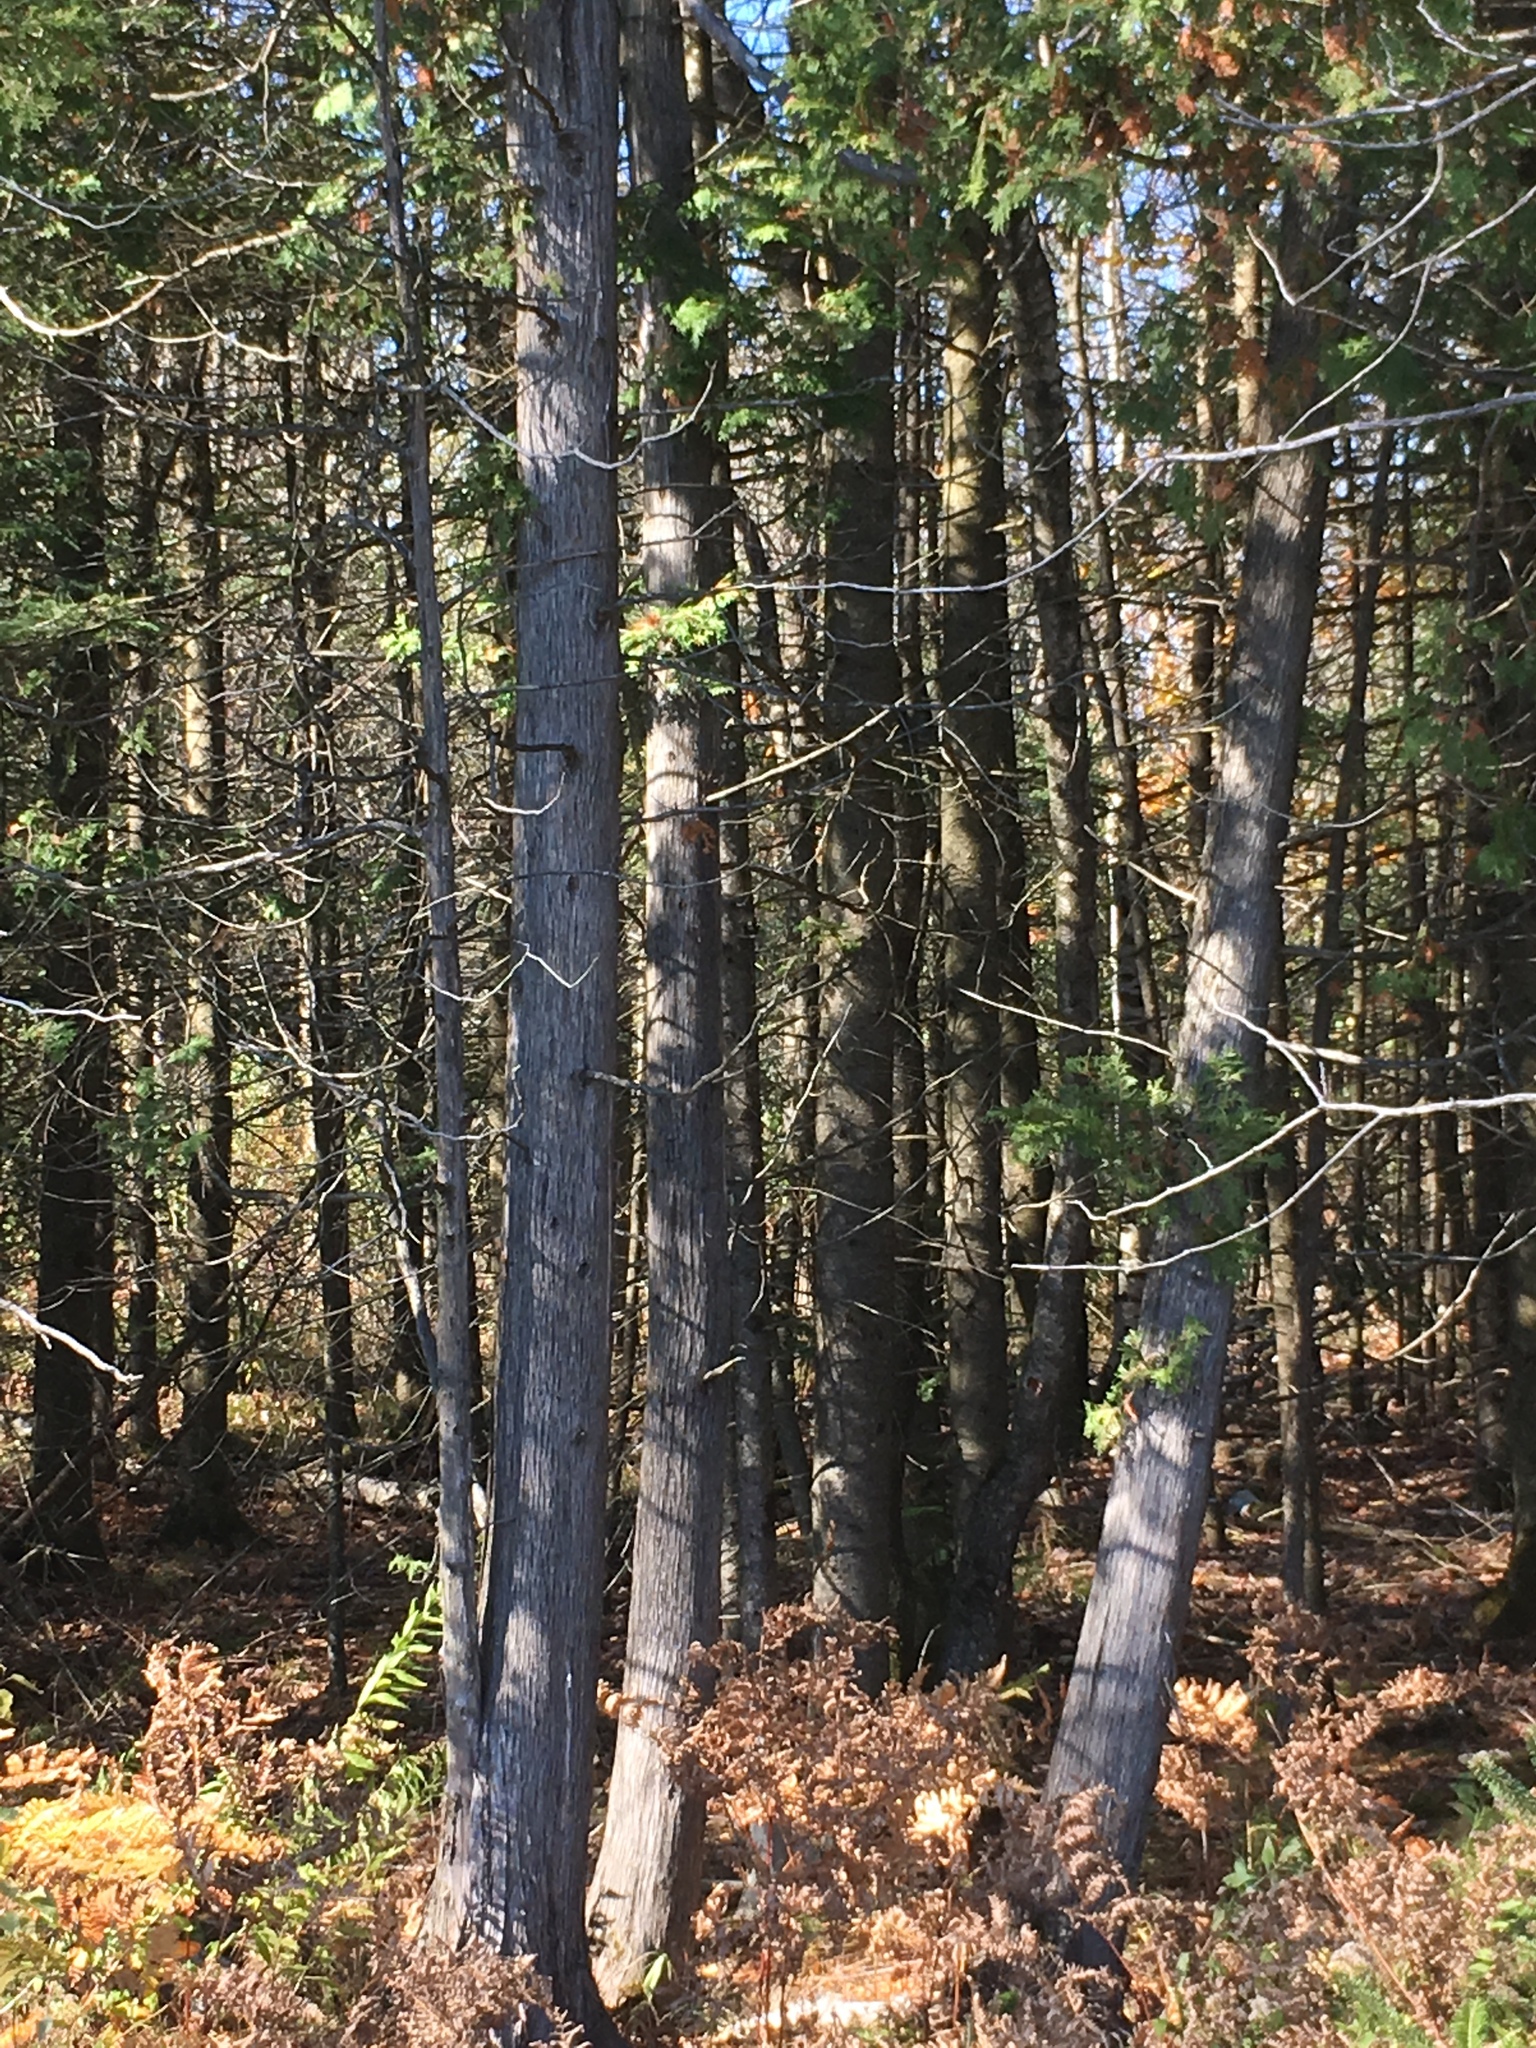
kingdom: Plantae
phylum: Tracheophyta
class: Pinopsida
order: Pinales
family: Cupressaceae
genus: Thuja
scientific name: Thuja occidentalis
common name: Northern white-cedar
